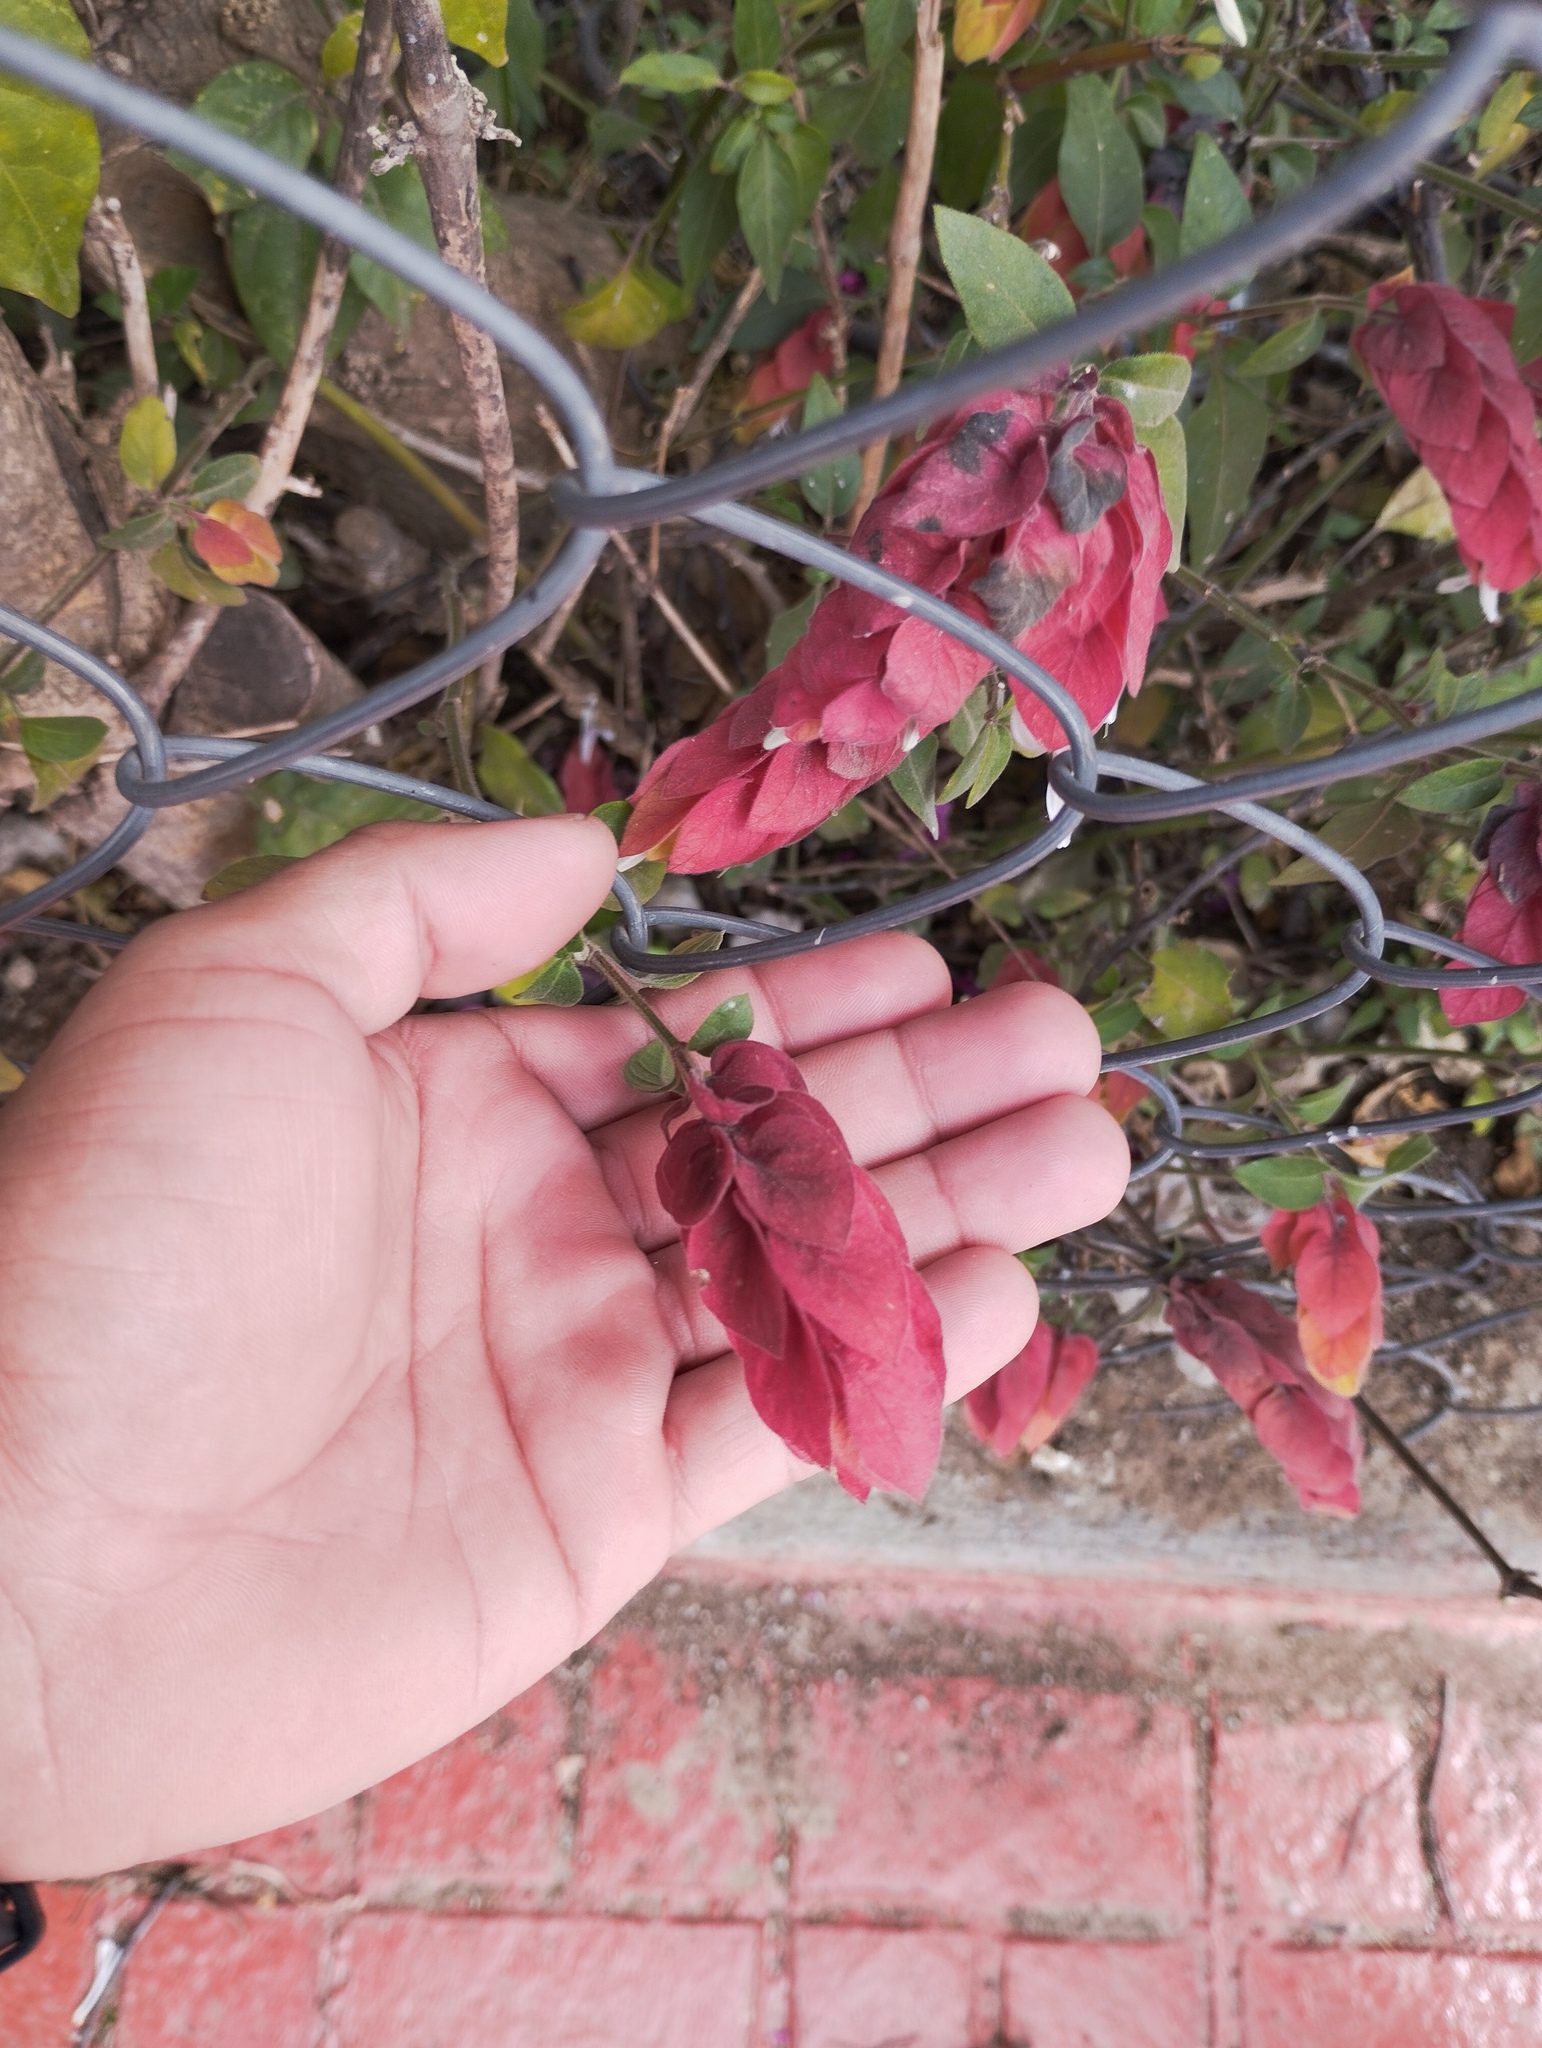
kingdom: Plantae
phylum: Tracheophyta
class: Magnoliopsida
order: Lamiales
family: Acanthaceae
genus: Justicia
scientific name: Justicia brandegeeana
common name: Shrimpplant
